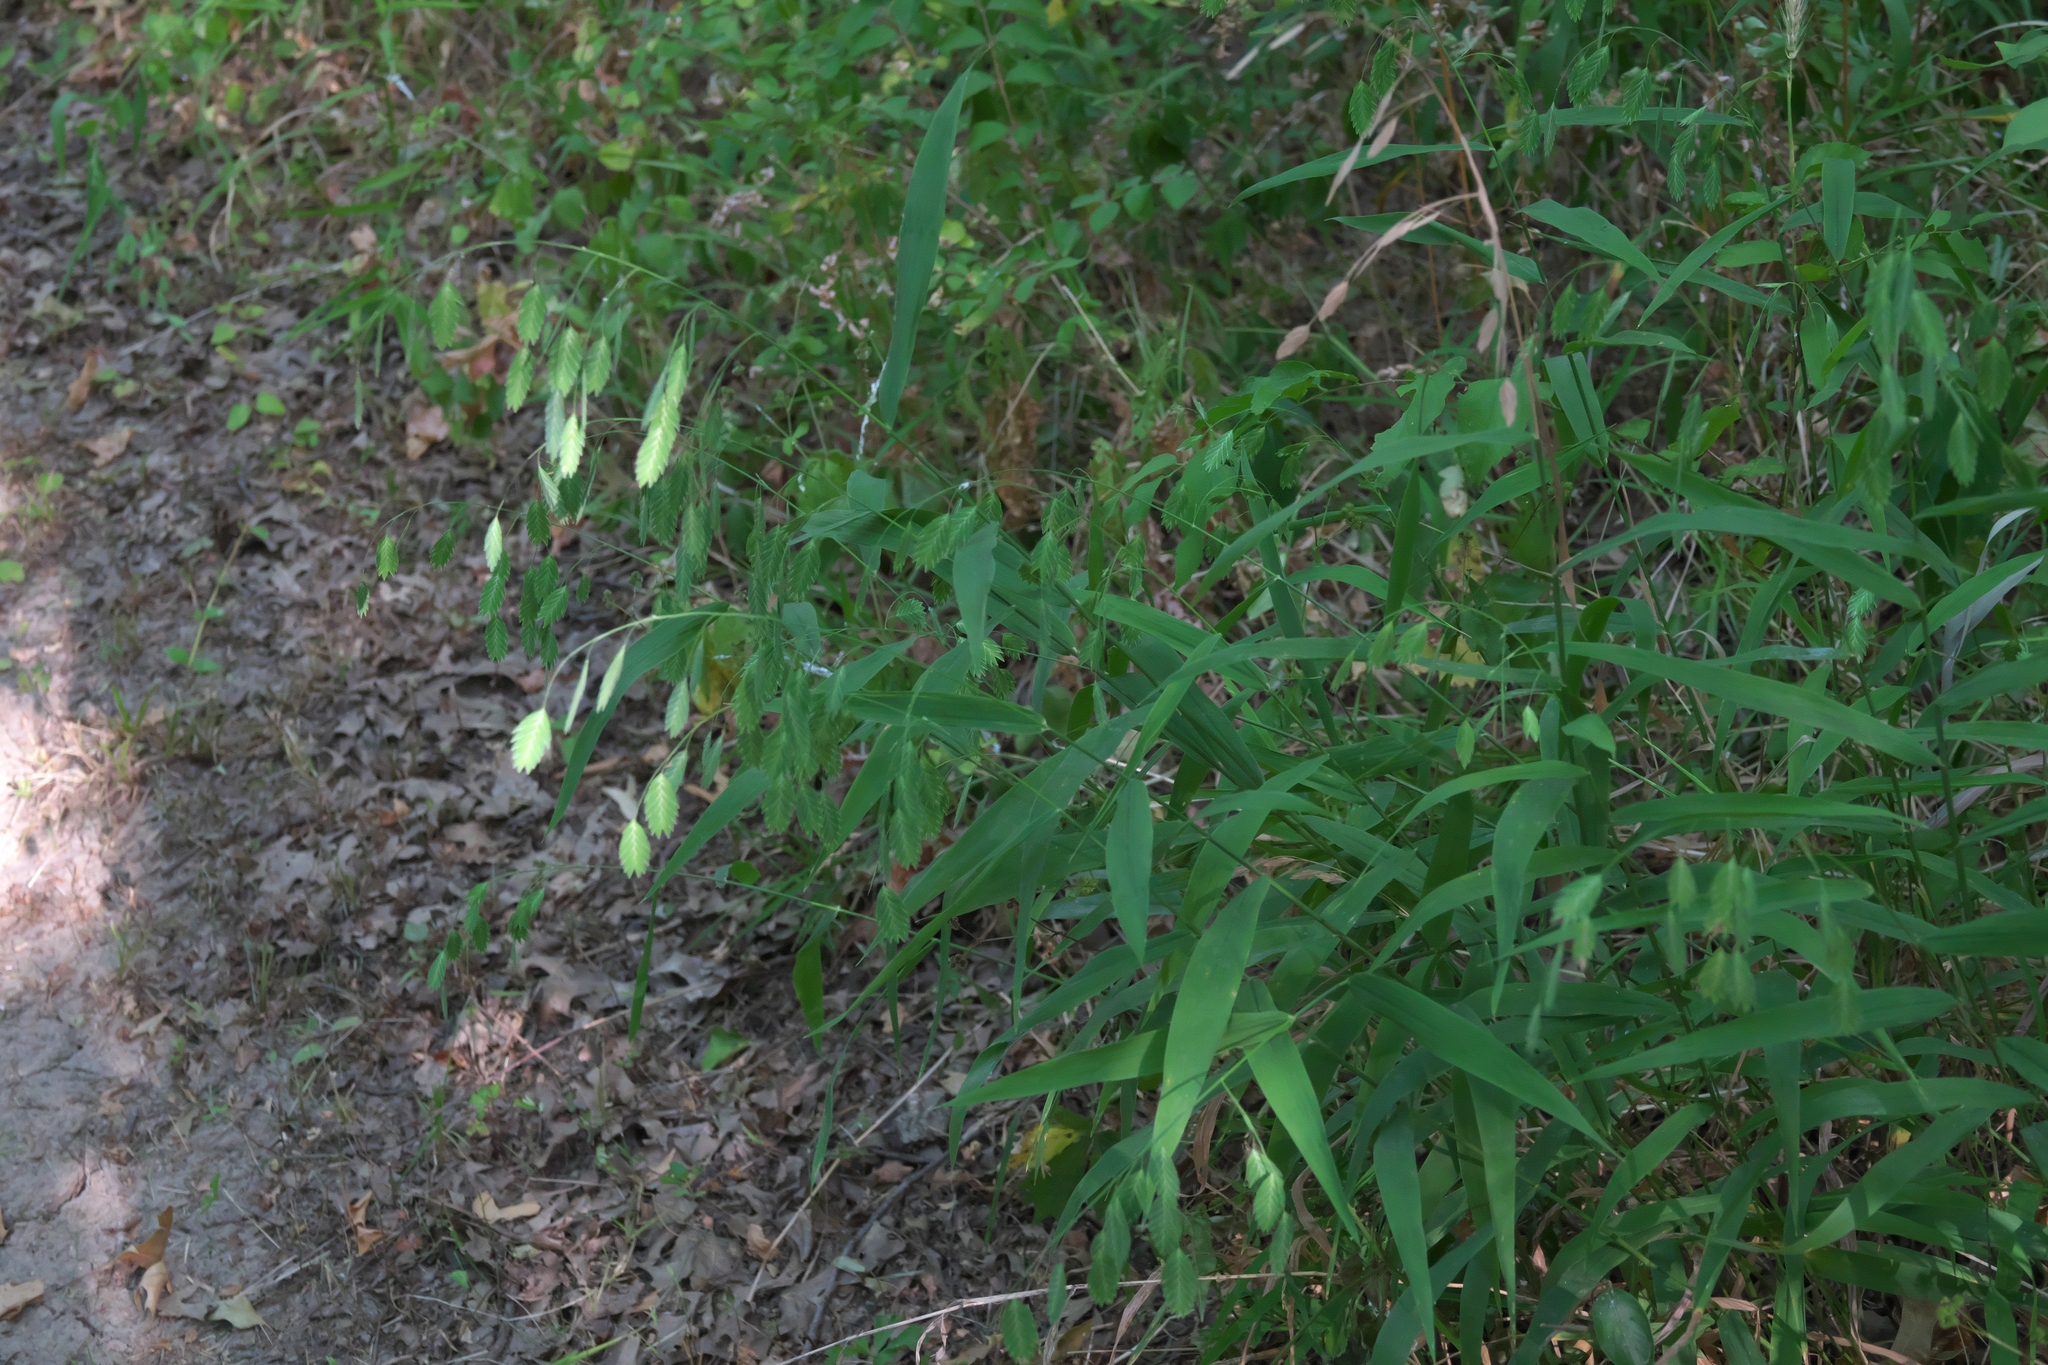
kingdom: Plantae
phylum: Tracheophyta
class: Liliopsida
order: Poales
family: Poaceae
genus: Chasmanthium
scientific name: Chasmanthium latifolium
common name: Broad-leaved chasmanthium
